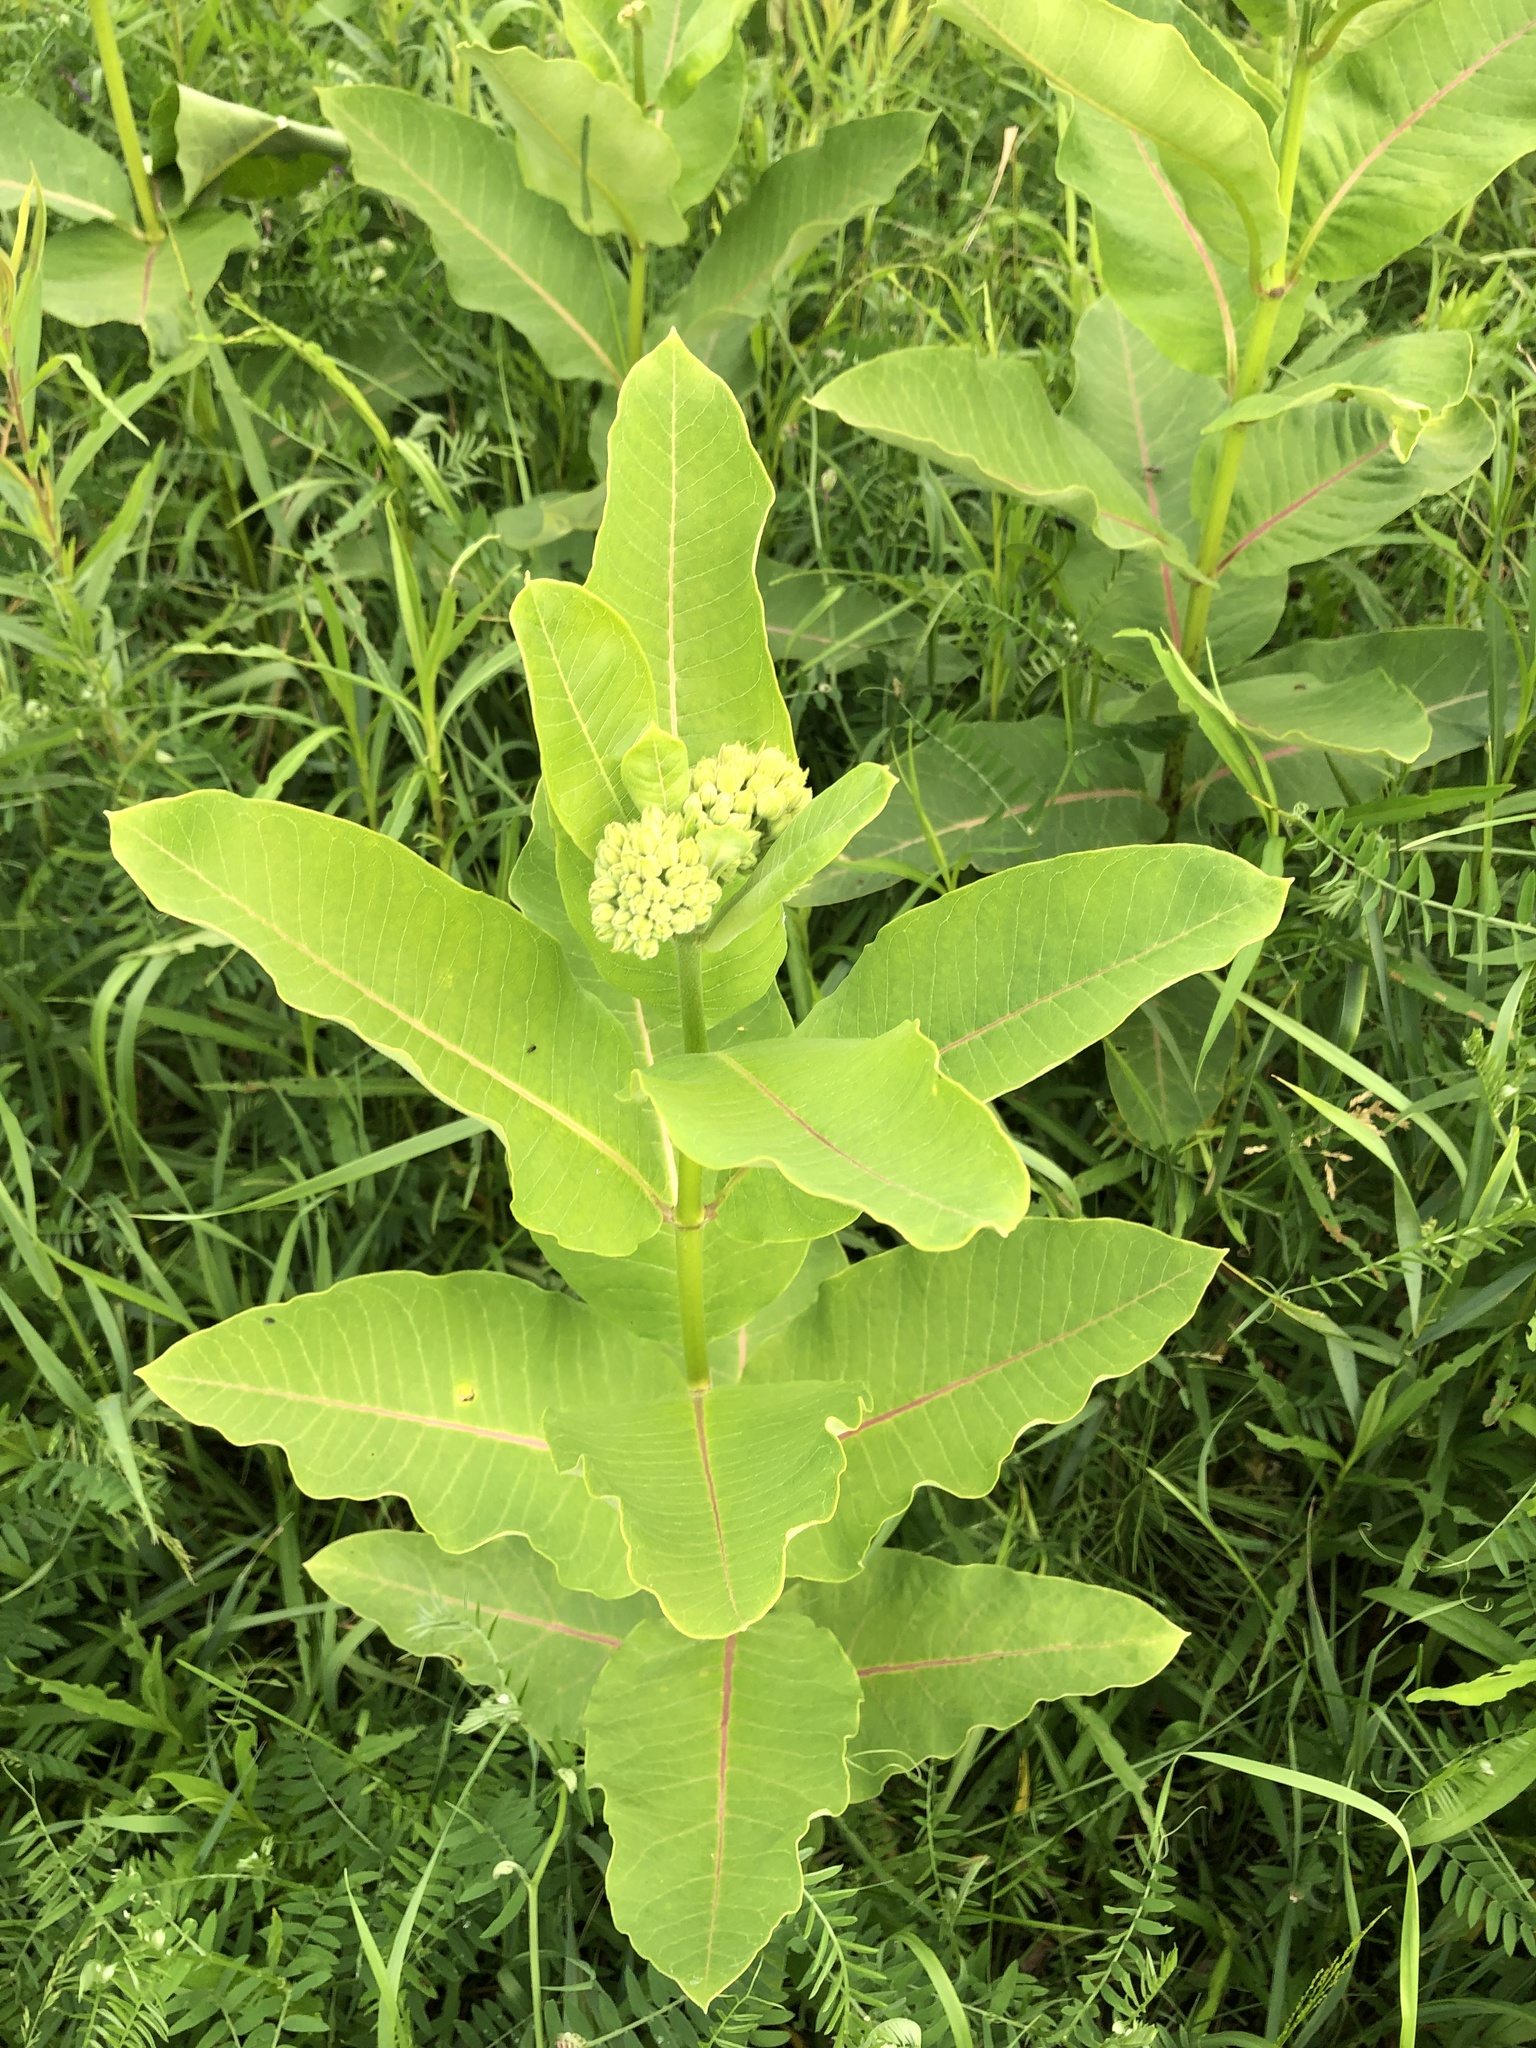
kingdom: Plantae
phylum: Tracheophyta
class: Magnoliopsida
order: Gentianales
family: Apocynaceae
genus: Asclepias
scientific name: Asclepias syriaca
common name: Common milkweed
